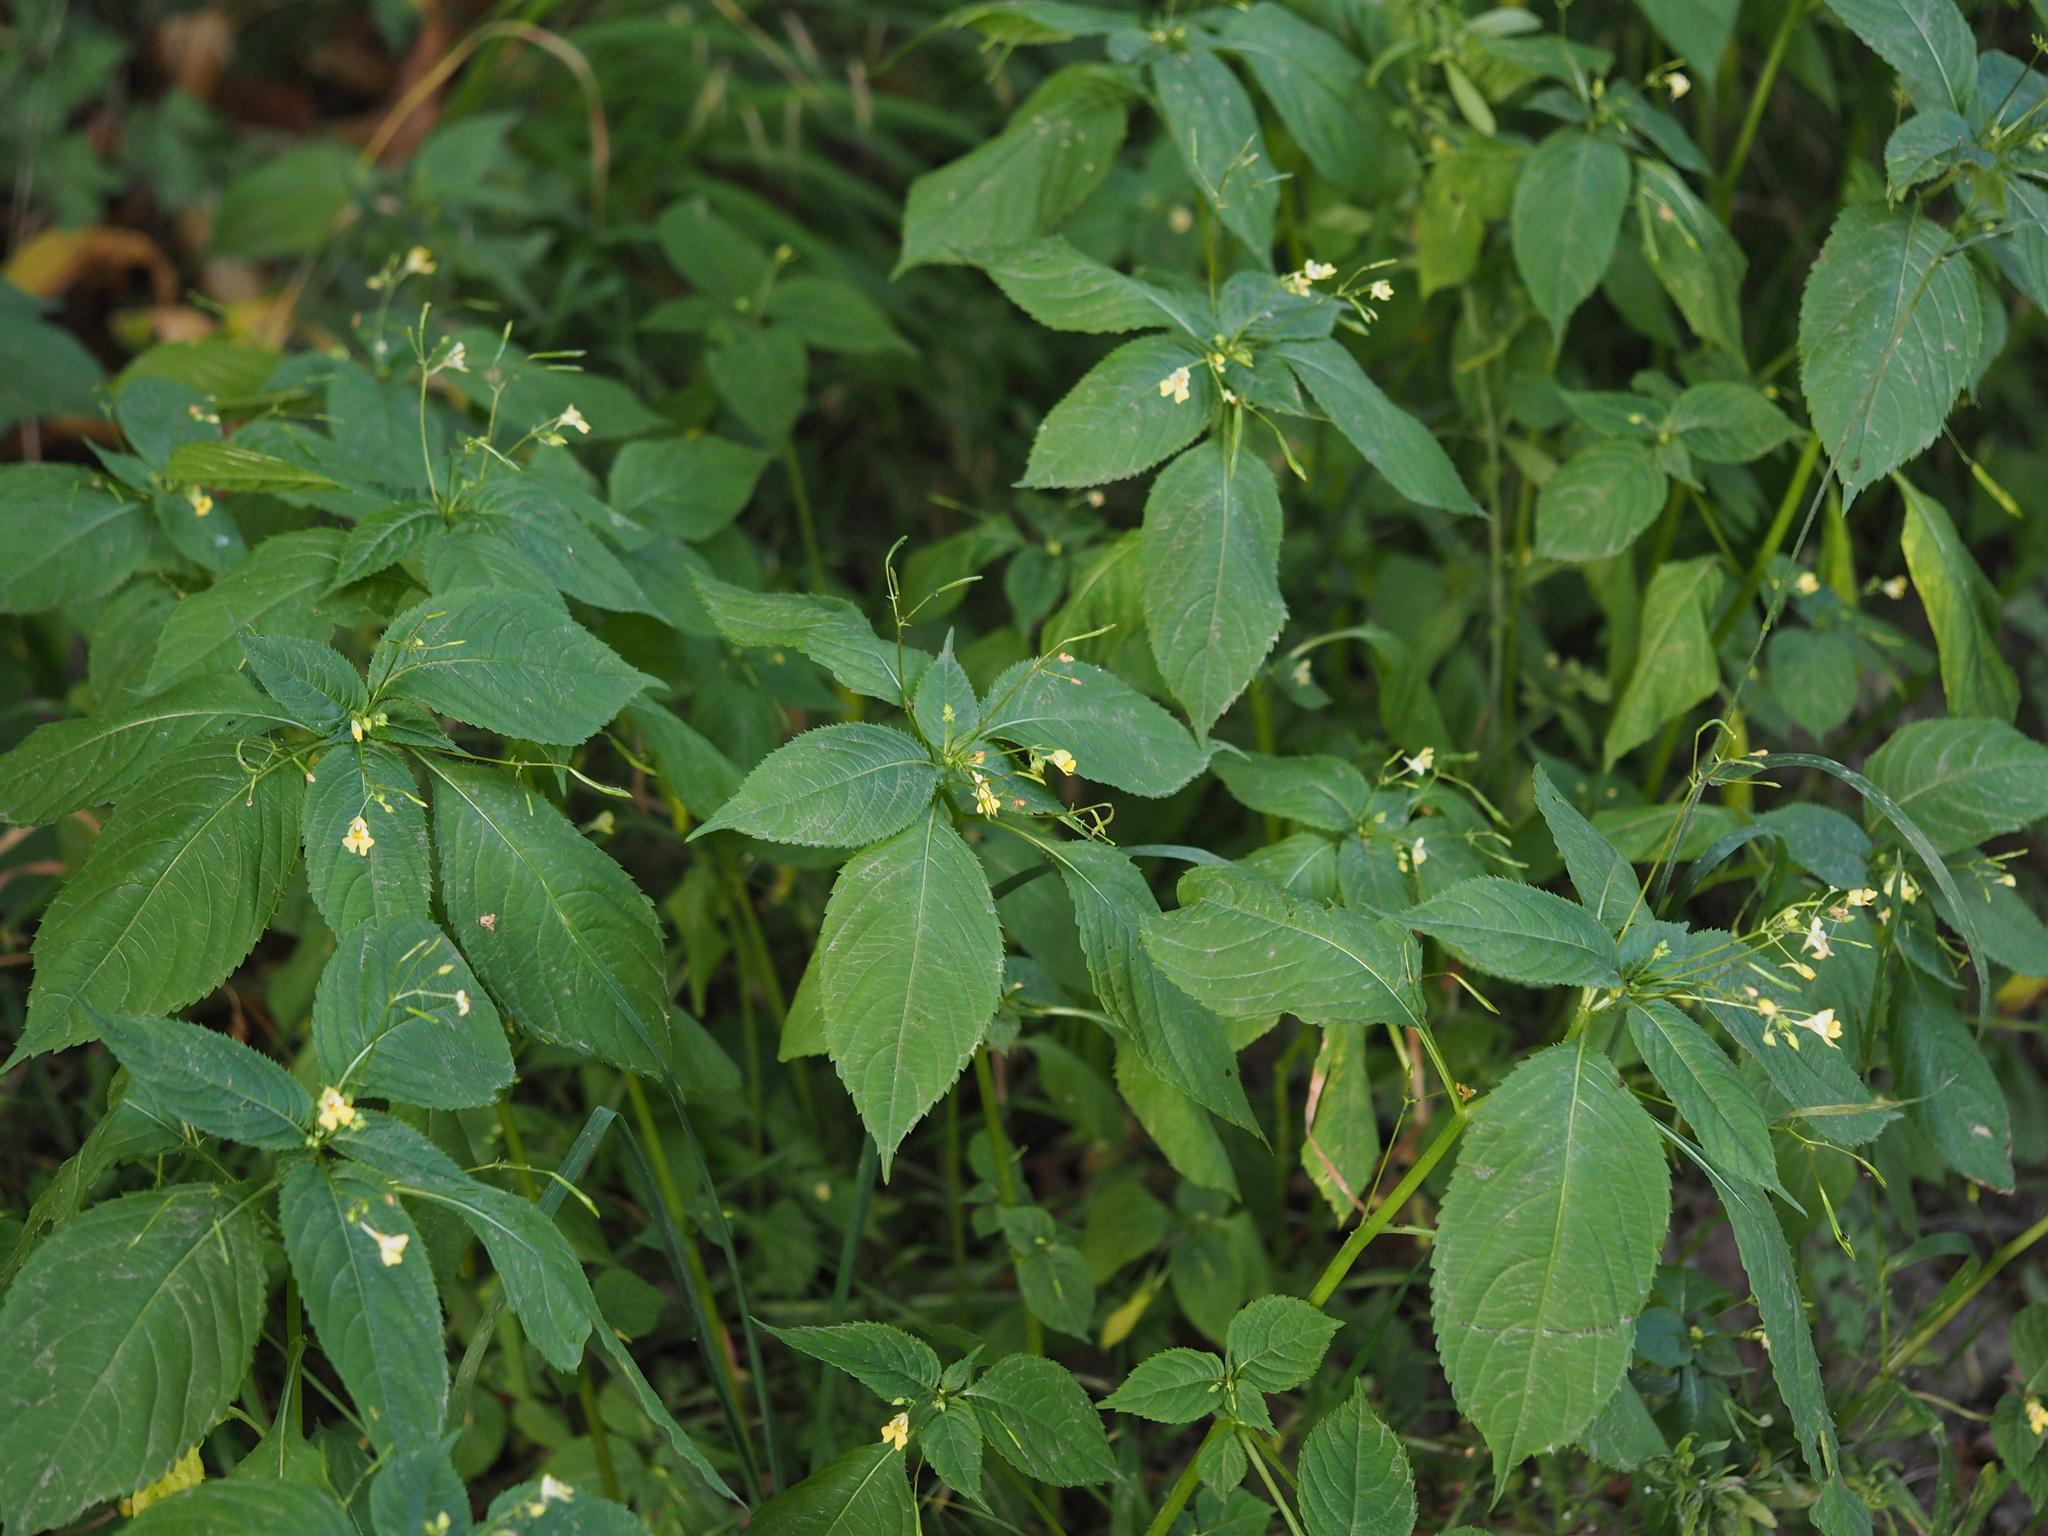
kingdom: Plantae
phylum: Tracheophyta
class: Magnoliopsida
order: Ericales
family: Balsaminaceae
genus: Impatiens
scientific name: Impatiens parviflora
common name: Small balsam
